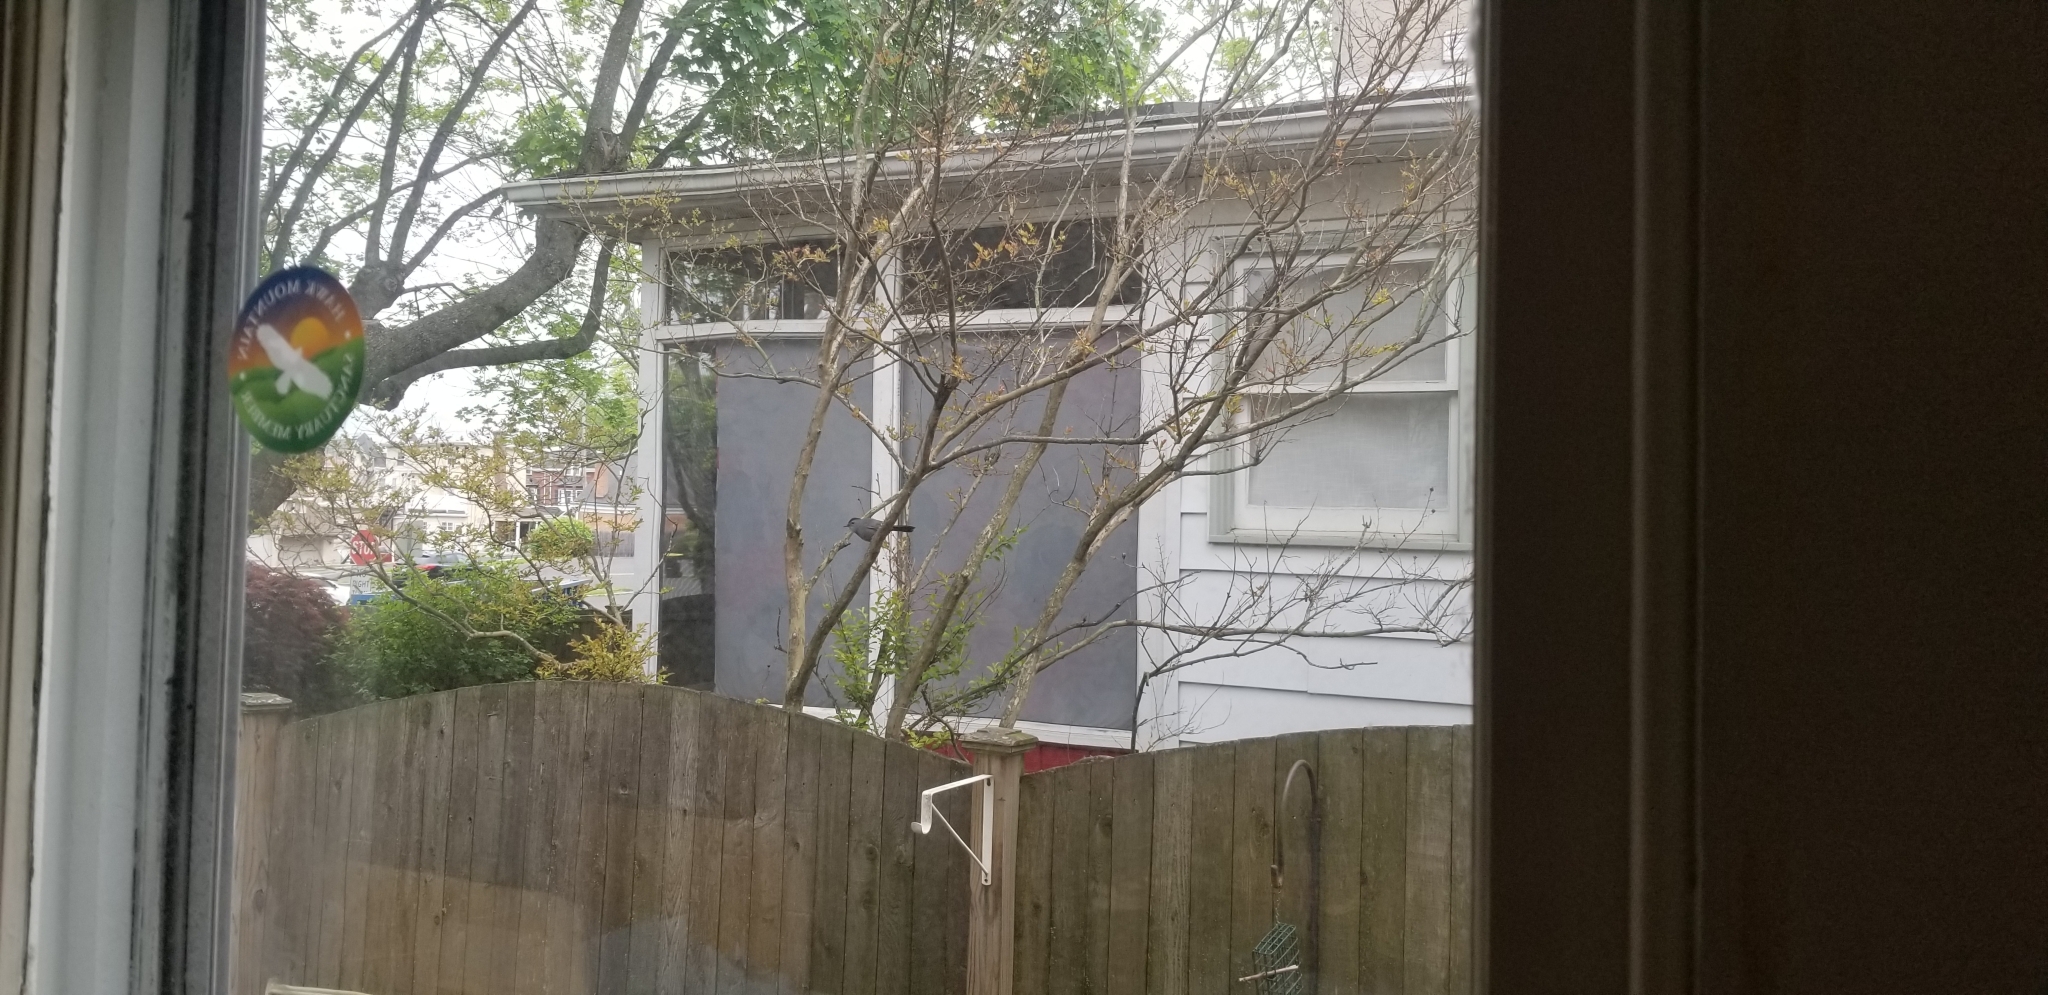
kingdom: Animalia
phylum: Chordata
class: Aves
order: Passeriformes
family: Mimidae
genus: Dumetella
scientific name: Dumetella carolinensis
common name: Gray catbird
